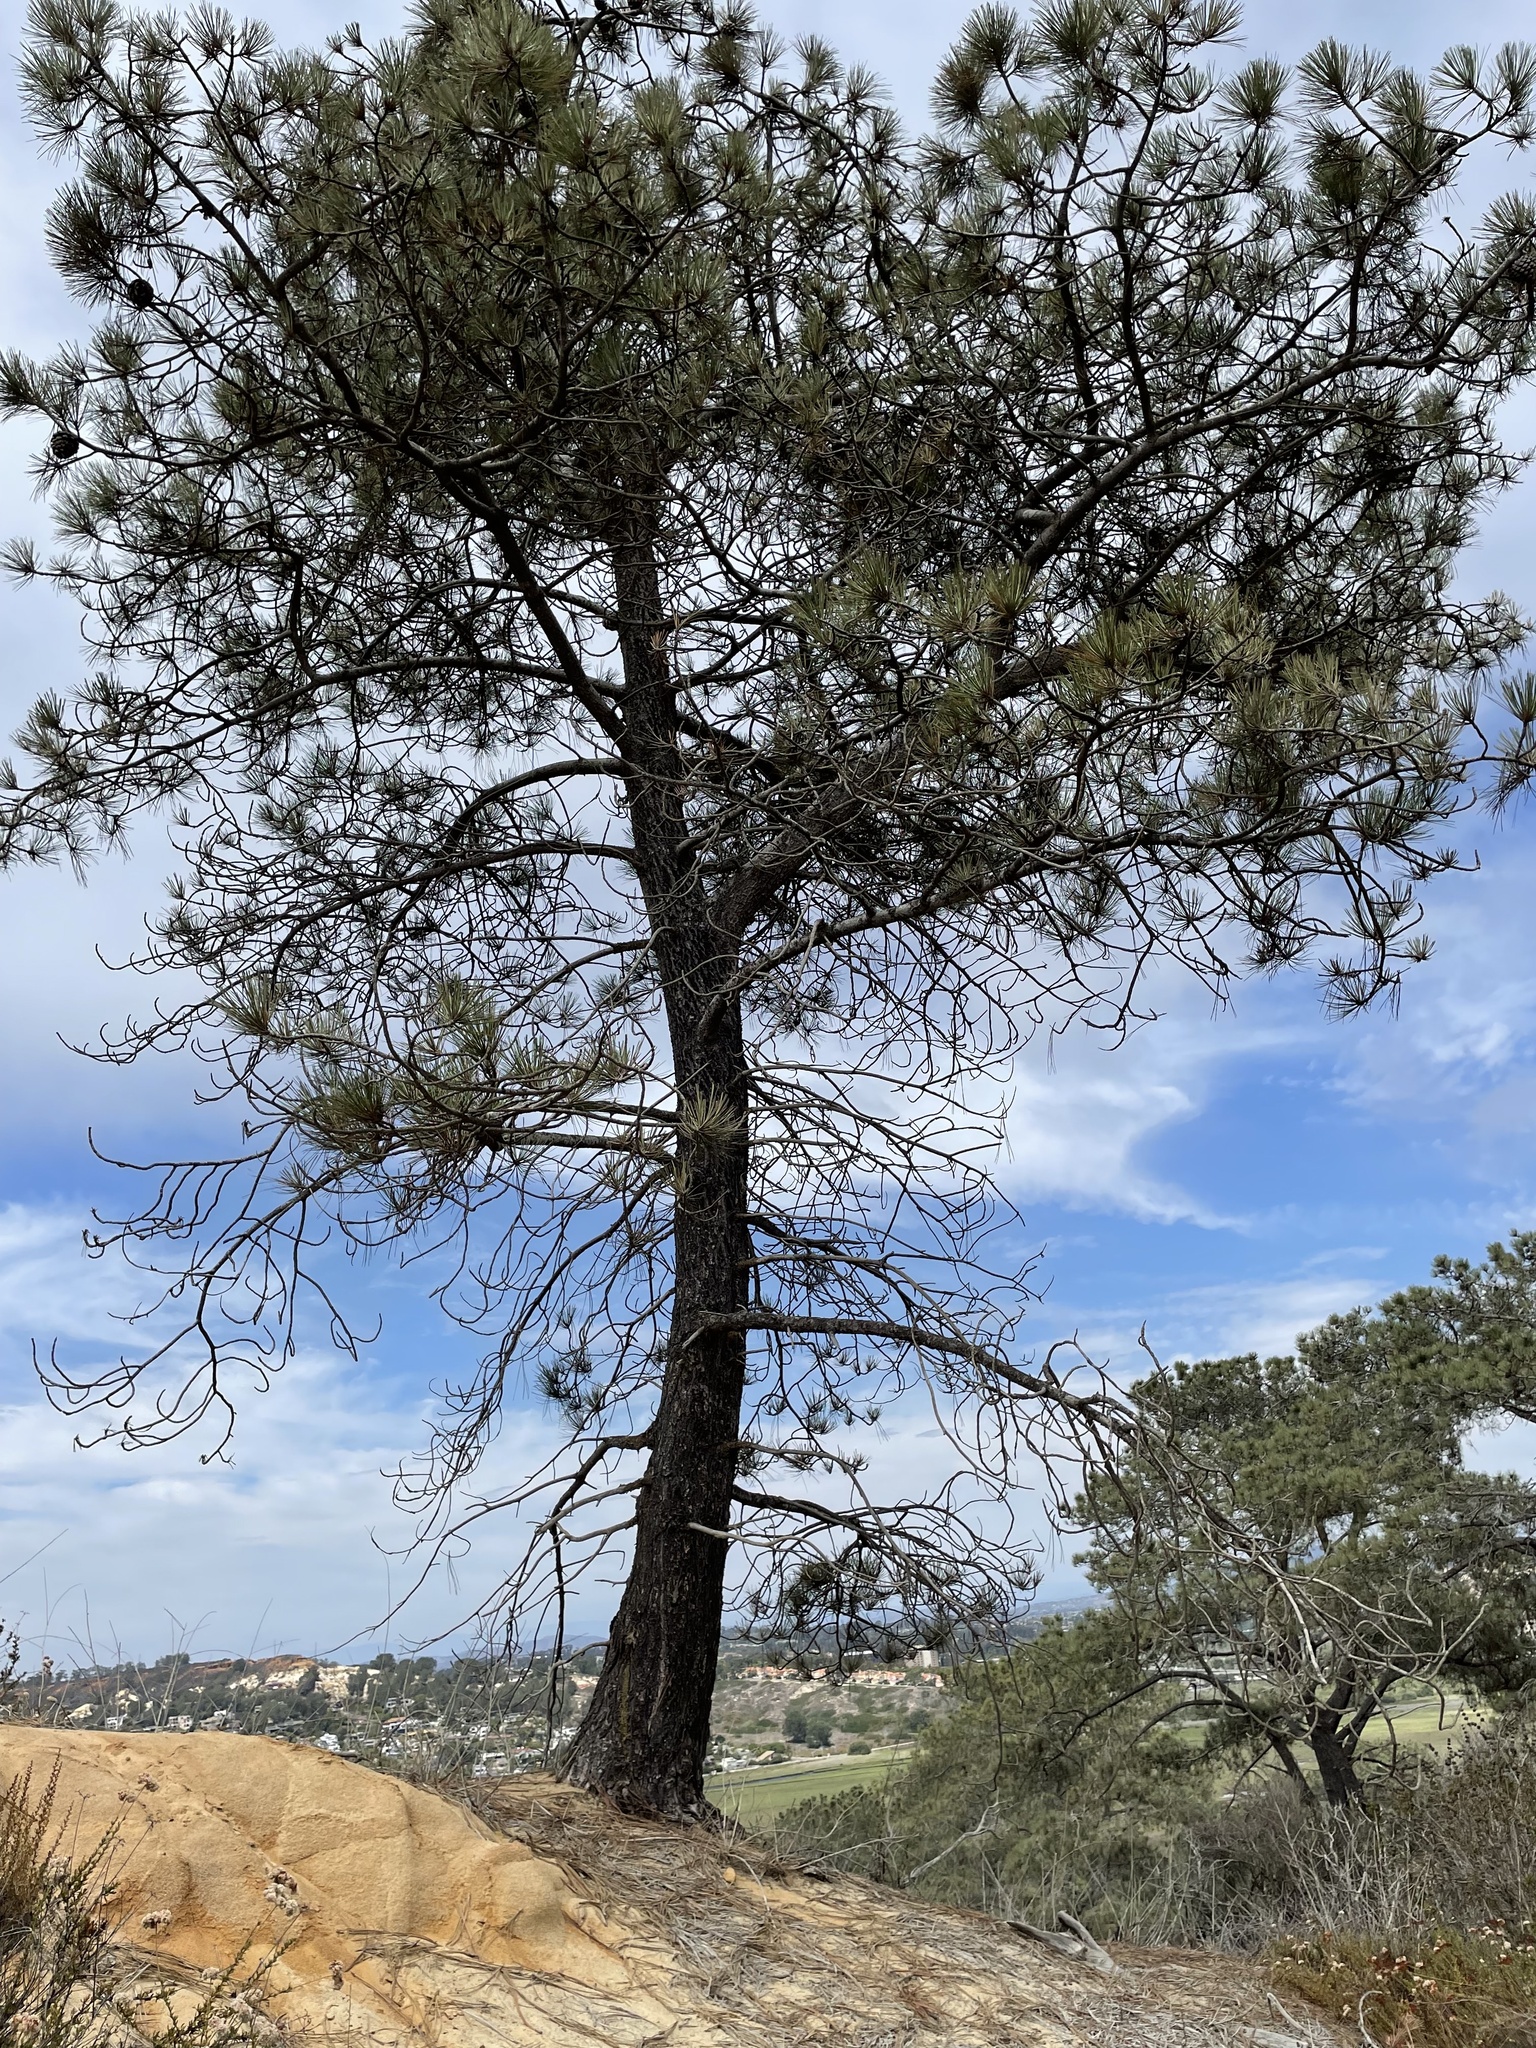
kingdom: Plantae
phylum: Tracheophyta
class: Pinopsida
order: Pinales
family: Pinaceae
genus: Pinus
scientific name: Pinus torreyana
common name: Torrey pine
